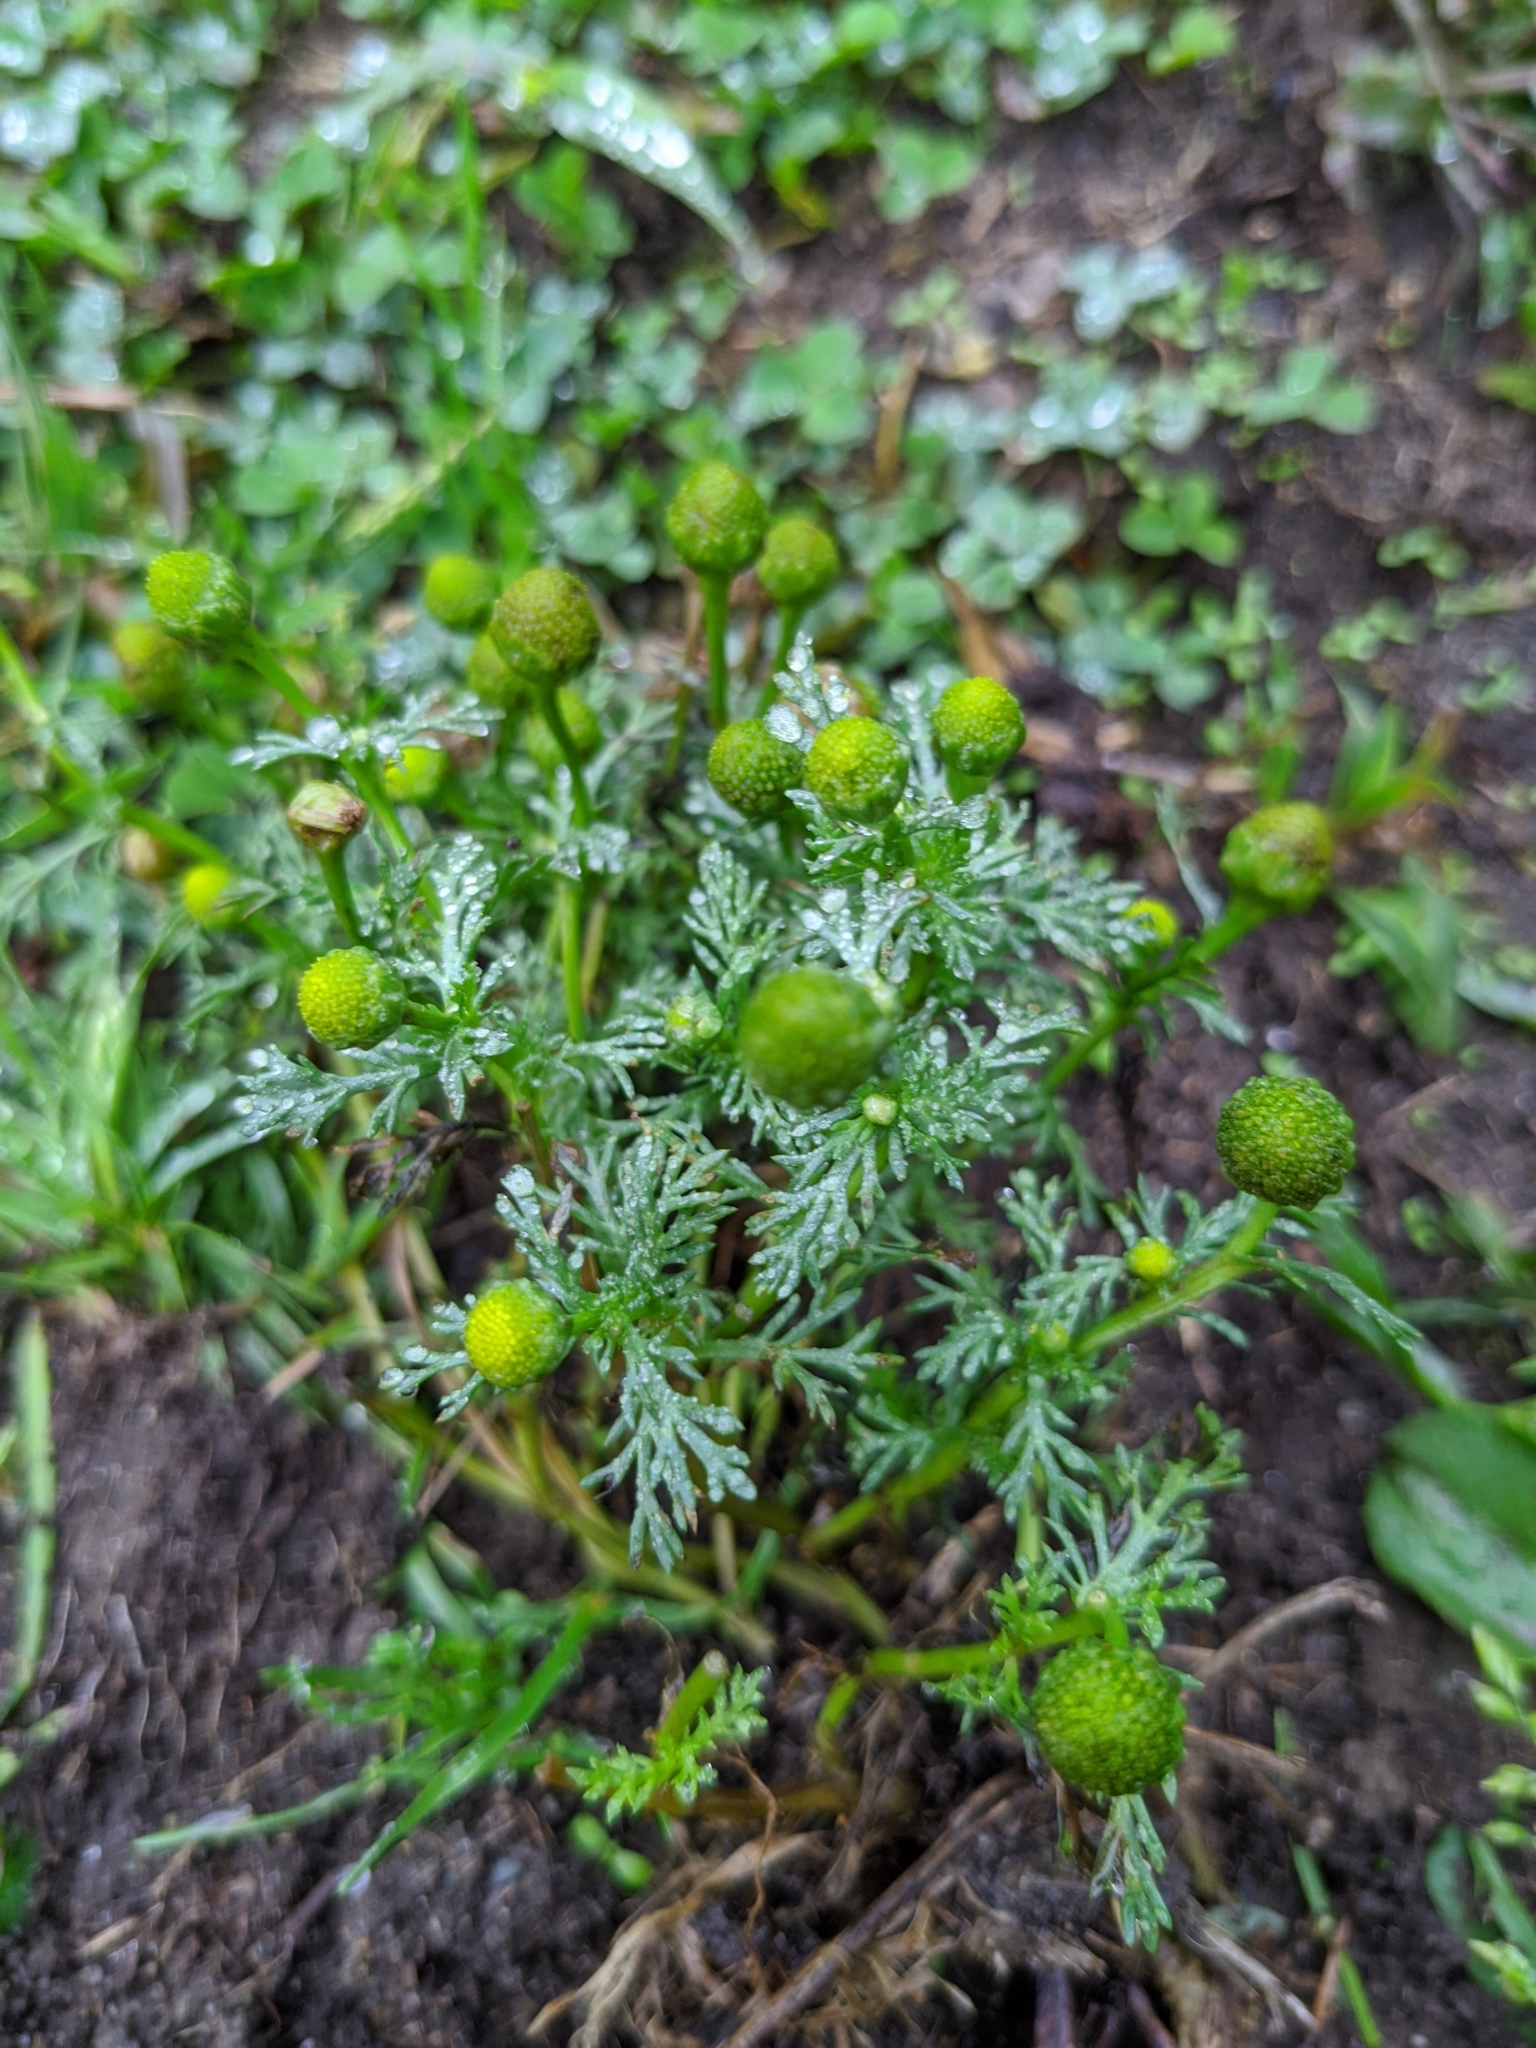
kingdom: Plantae
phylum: Tracheophyta
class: Magnoliopsida
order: Asterales
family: Asteraceae
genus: Matricaria
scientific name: Matricaria discoidea
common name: Disc mayweed
